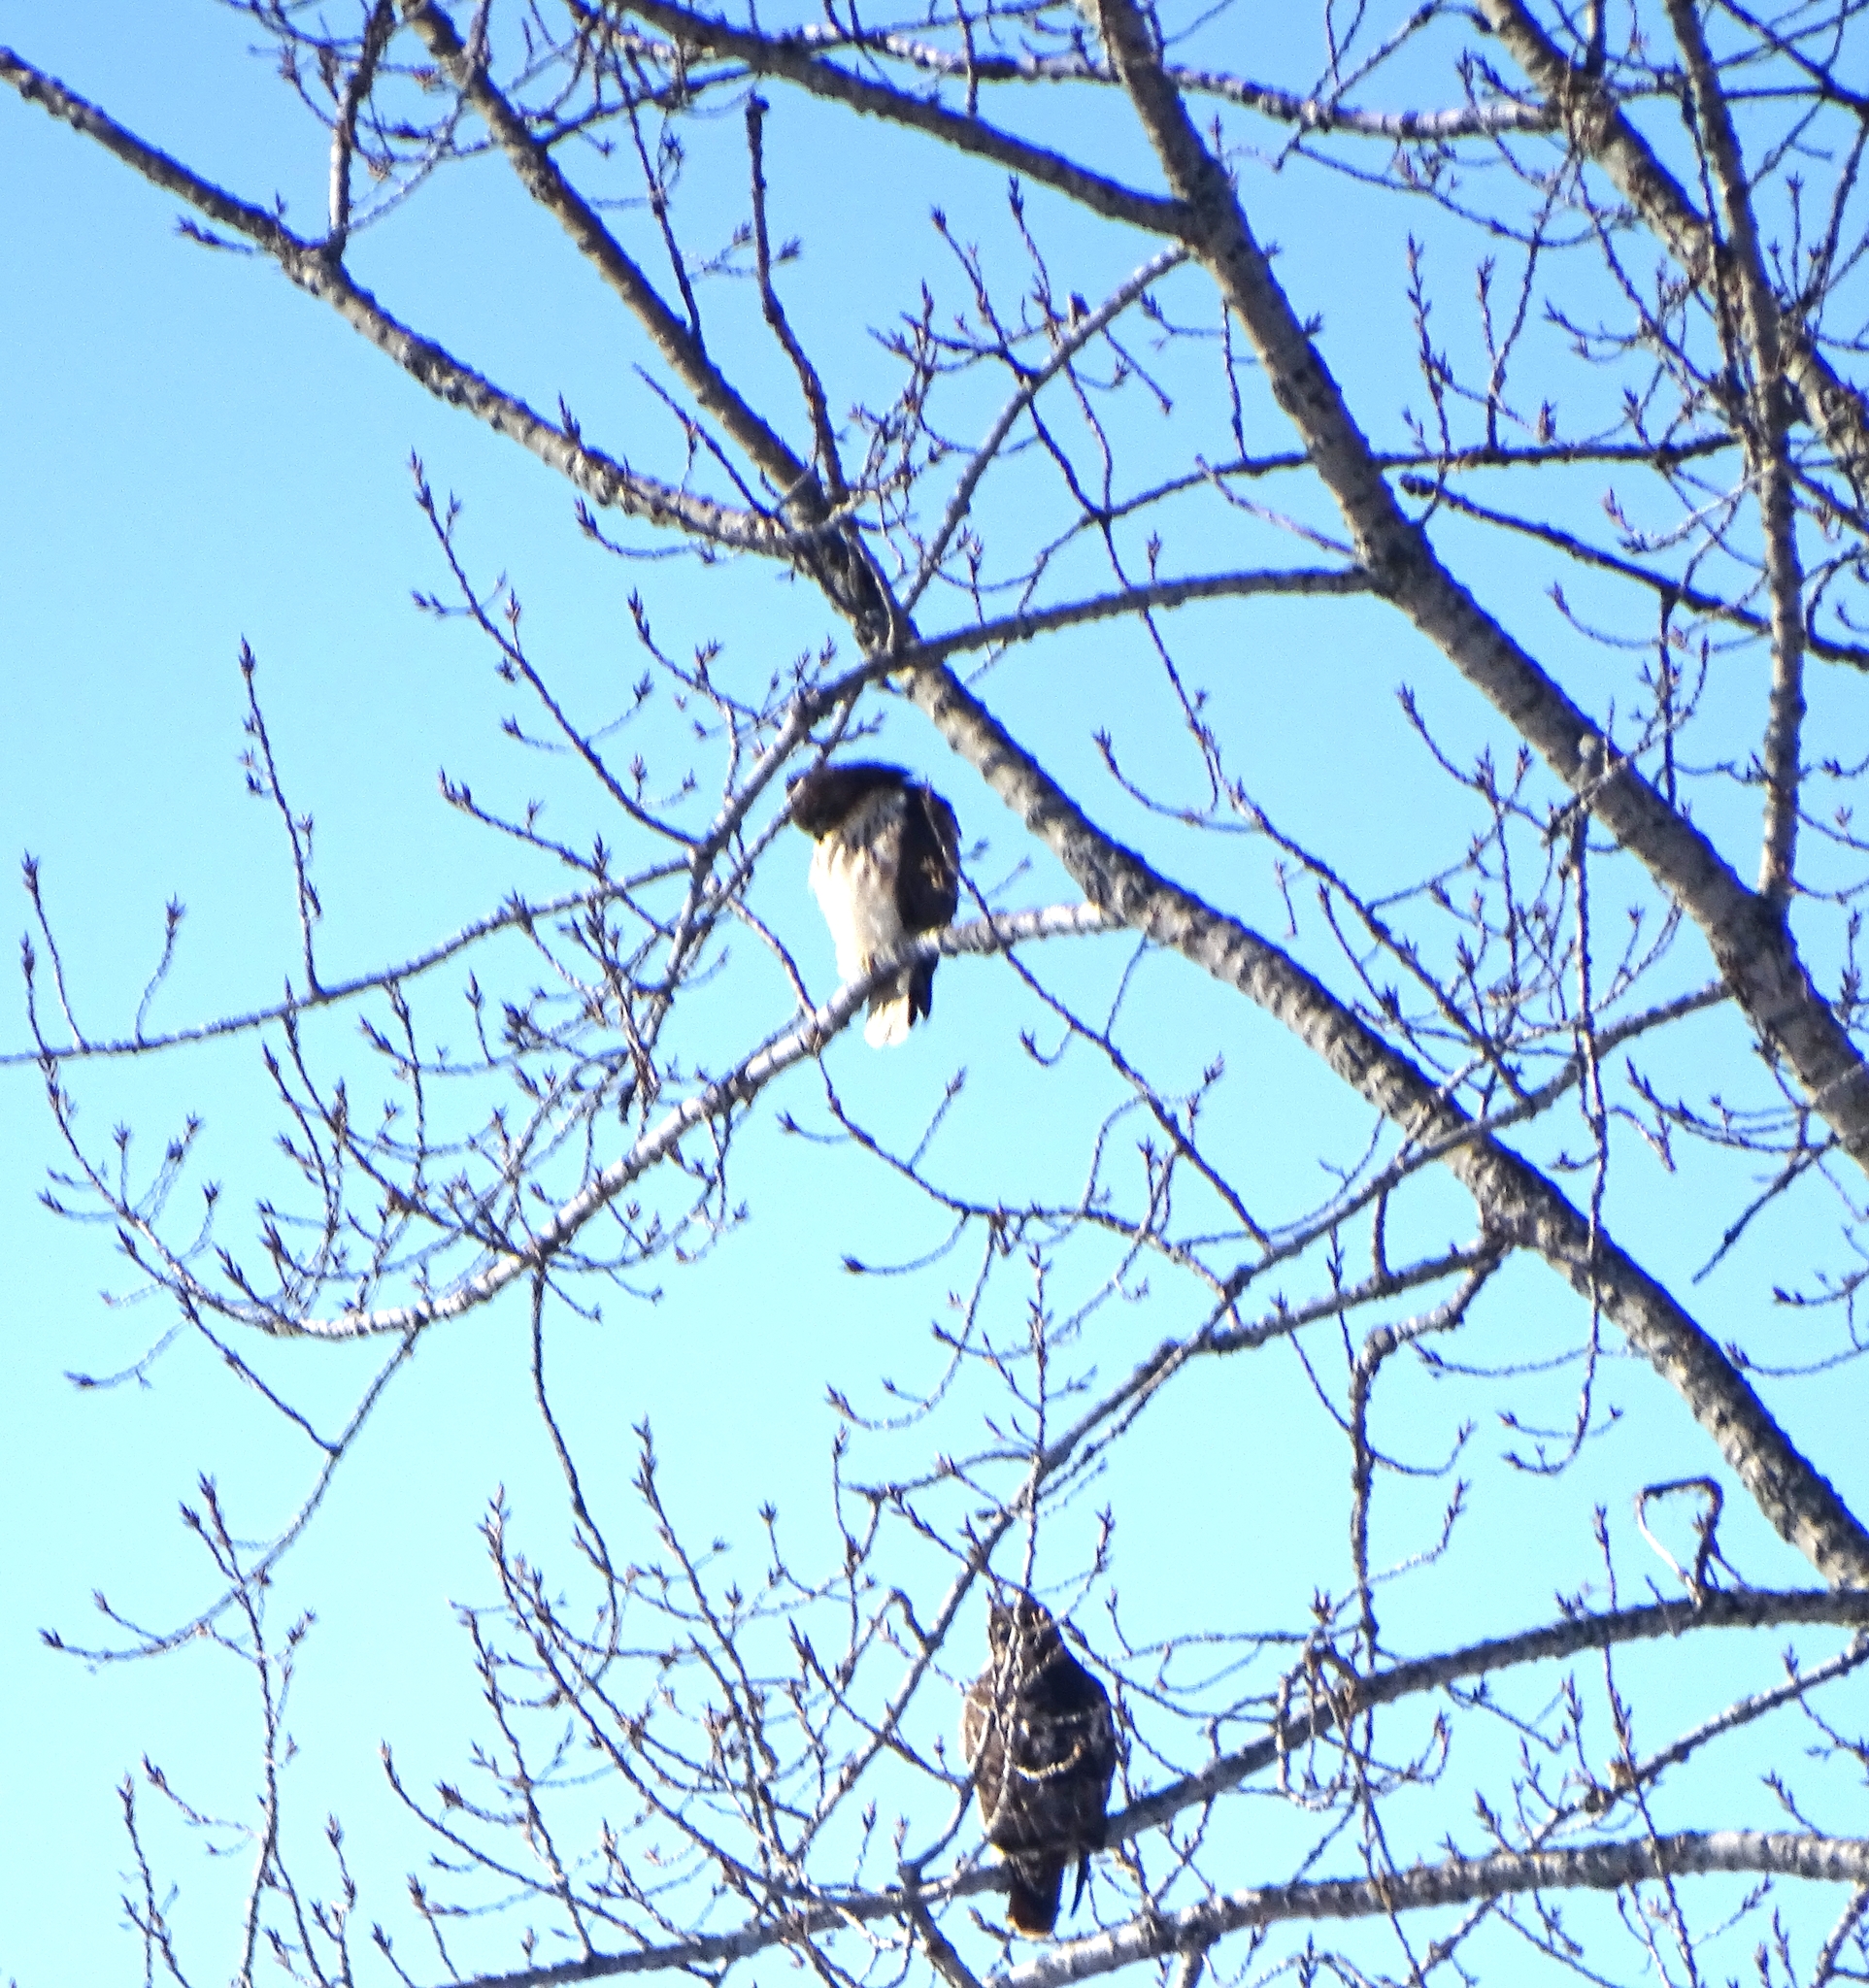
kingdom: Animalia
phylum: Chordata
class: Aves
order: Accipitriformes
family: Accipitridae
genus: Buteo
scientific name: Buteo jamaicensis
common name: Red-tailed hawk
